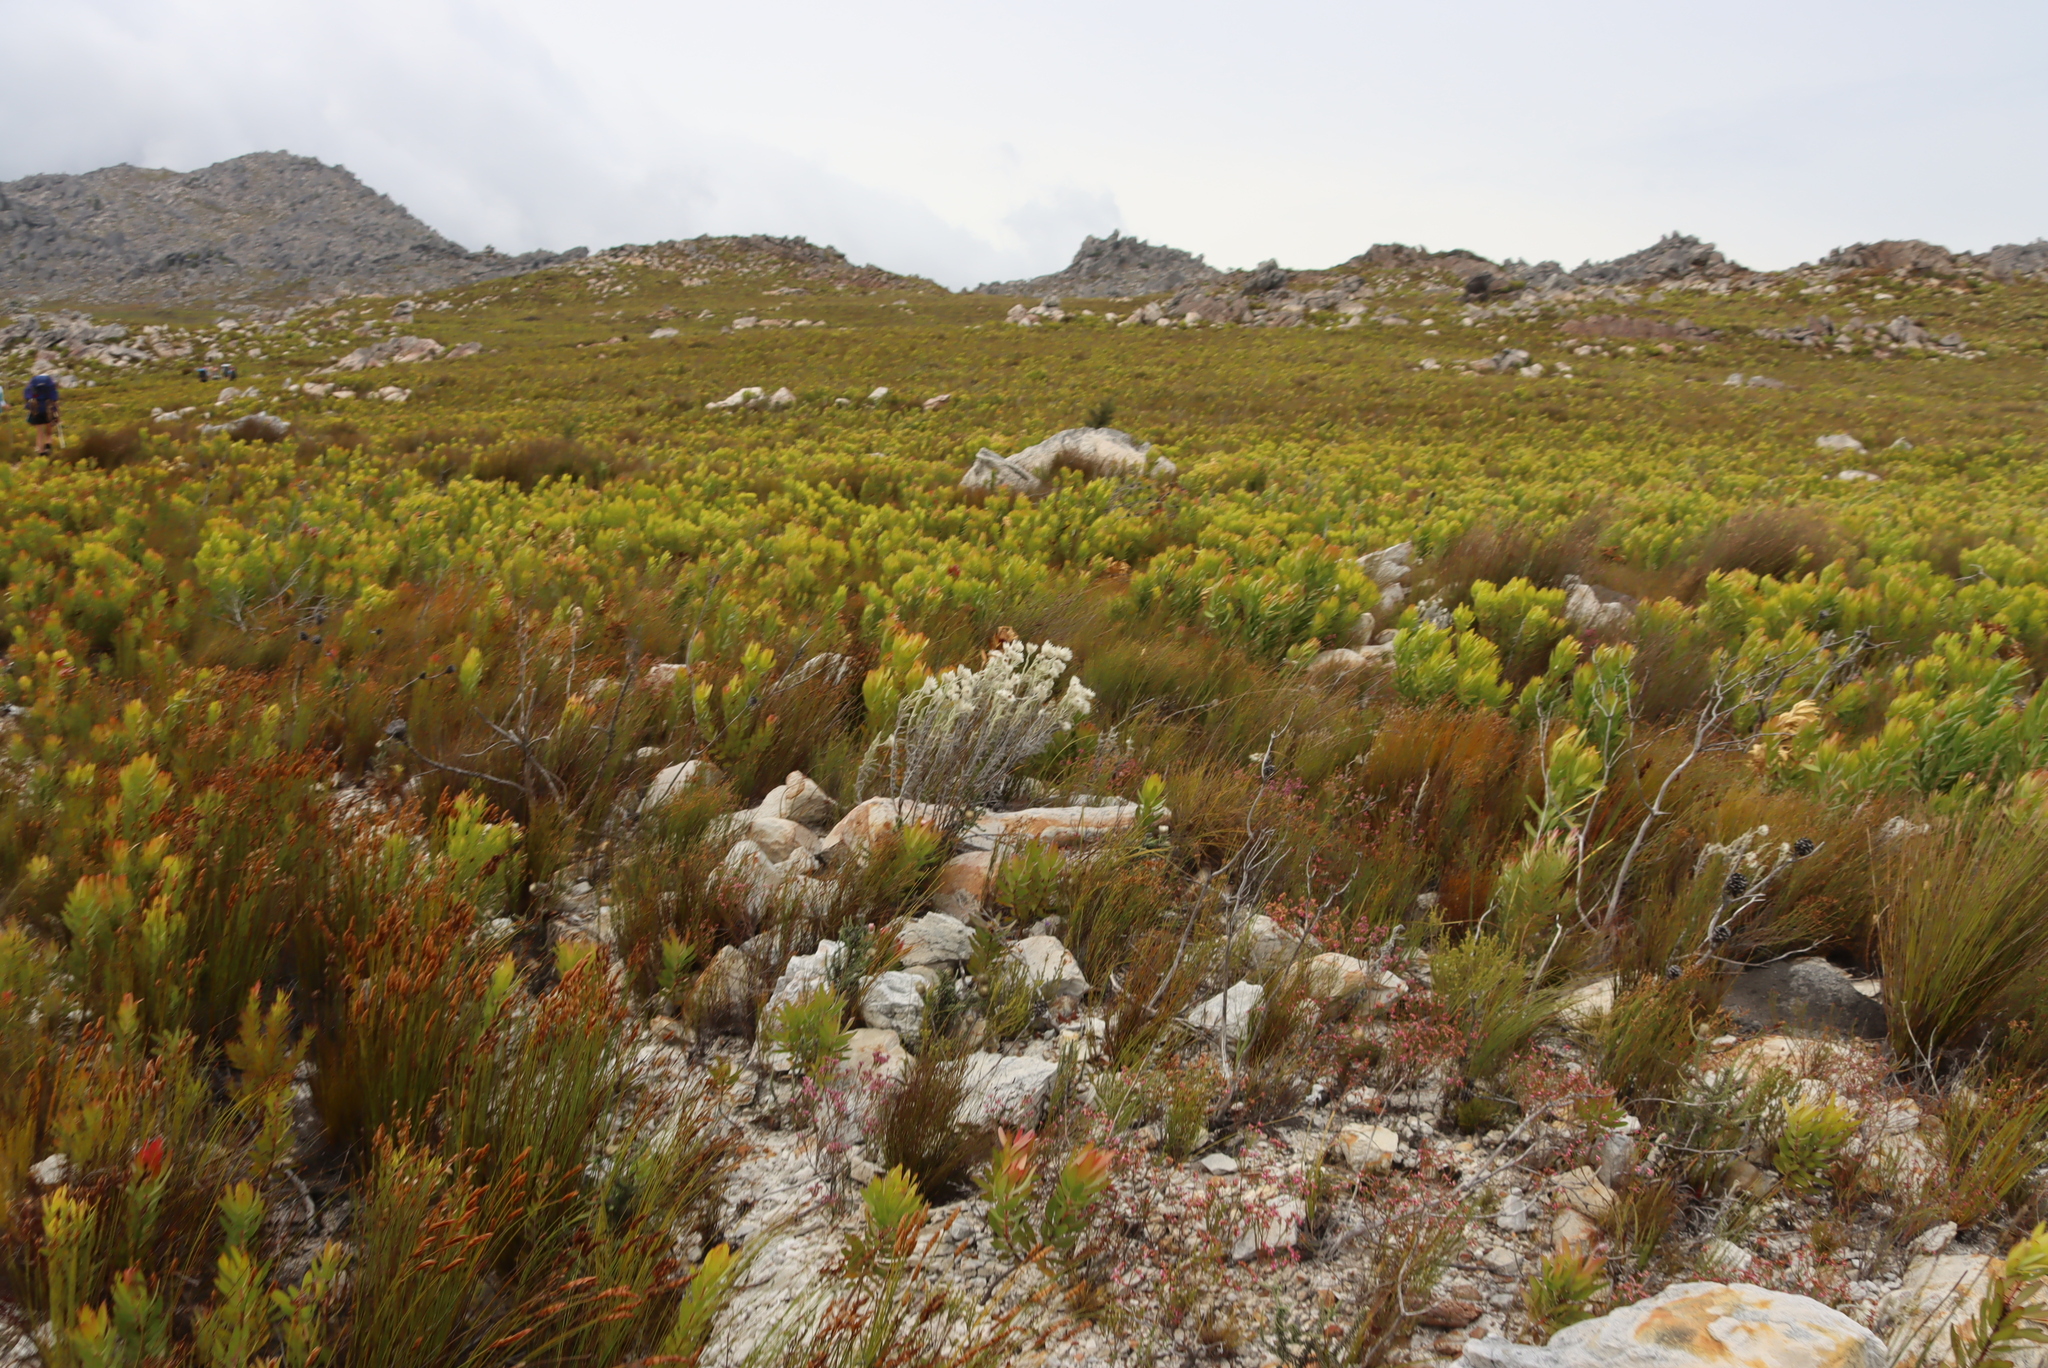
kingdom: Plantae
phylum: Tracheophyta
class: Magnoliopsida
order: Asterales
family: Asteraceae
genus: Syncarpha
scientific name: Syncarpha vestita
